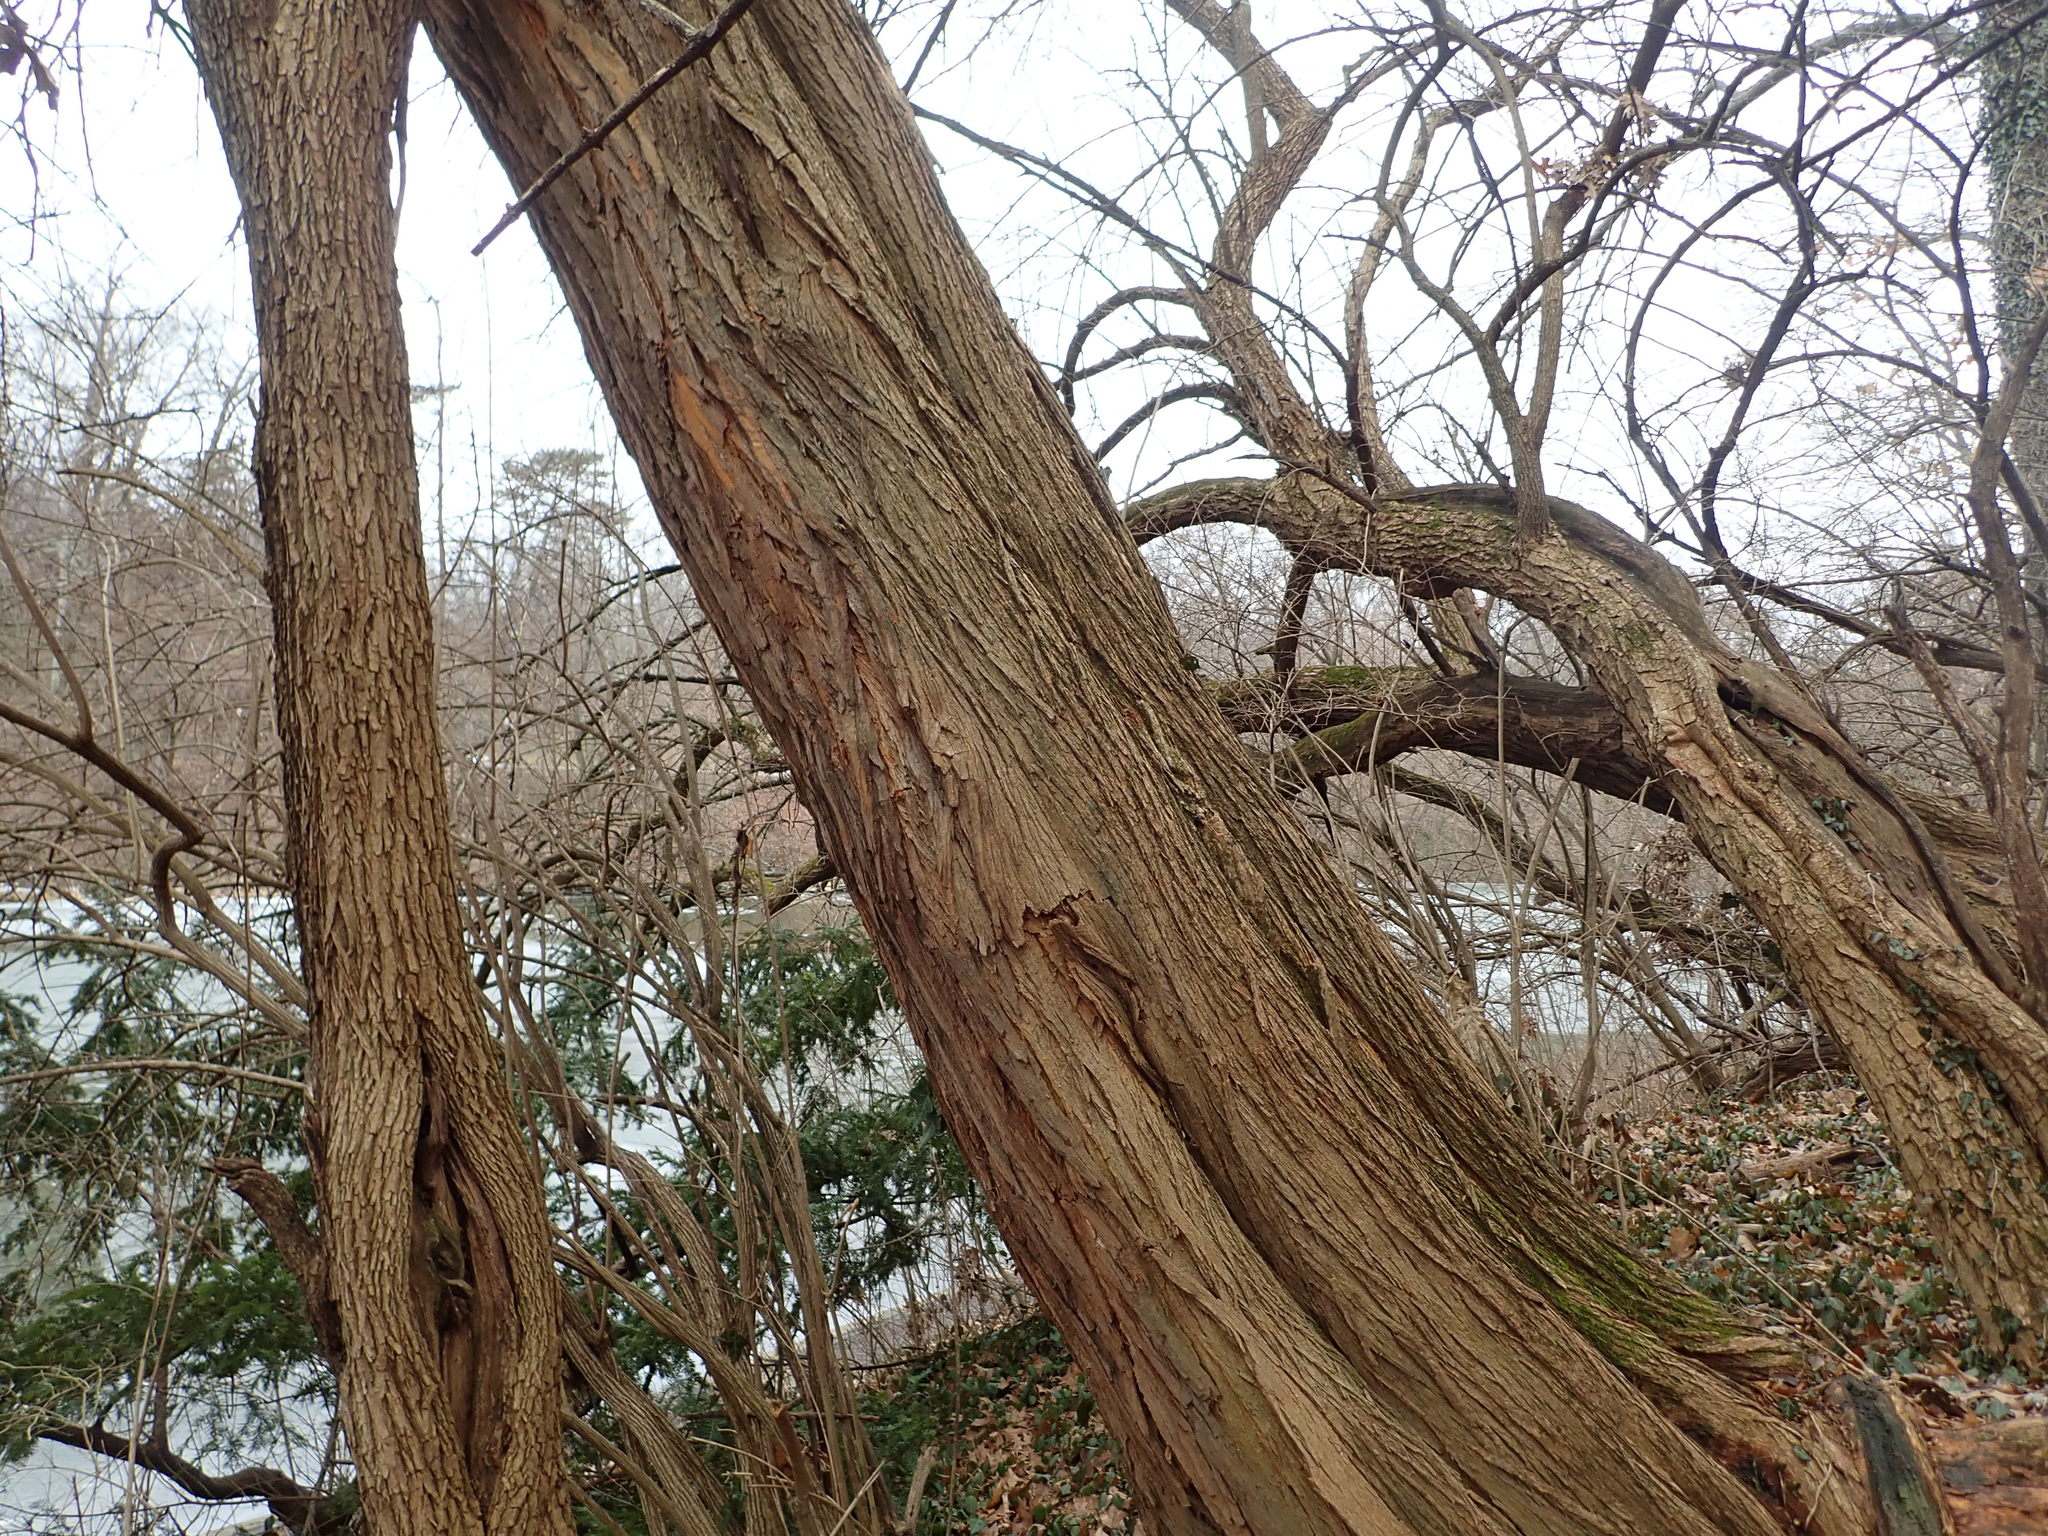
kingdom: Plantae
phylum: Tracheophyta
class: Magnoliopsida
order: Rosales
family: Moraceae
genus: Maclura
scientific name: Maclura pomifera
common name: Osage-orange
